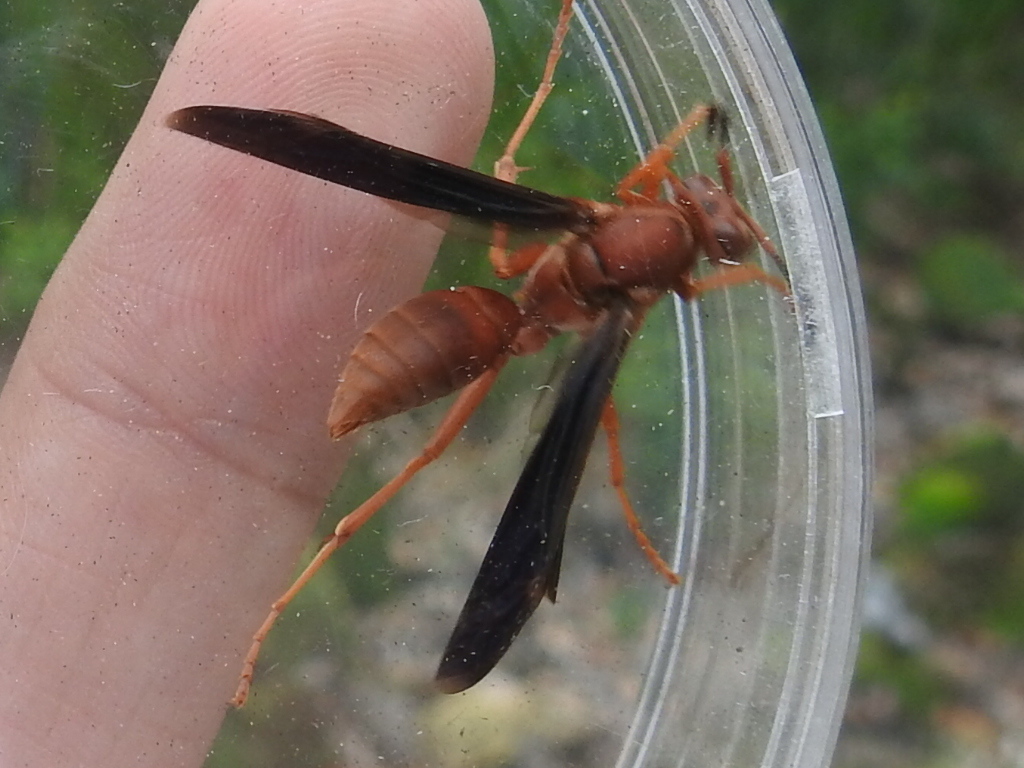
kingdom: Animalia
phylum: Arthropoda
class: Insecta
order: Hymenoptera
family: Eumenidae
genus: Polistes
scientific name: Polistes carolina
